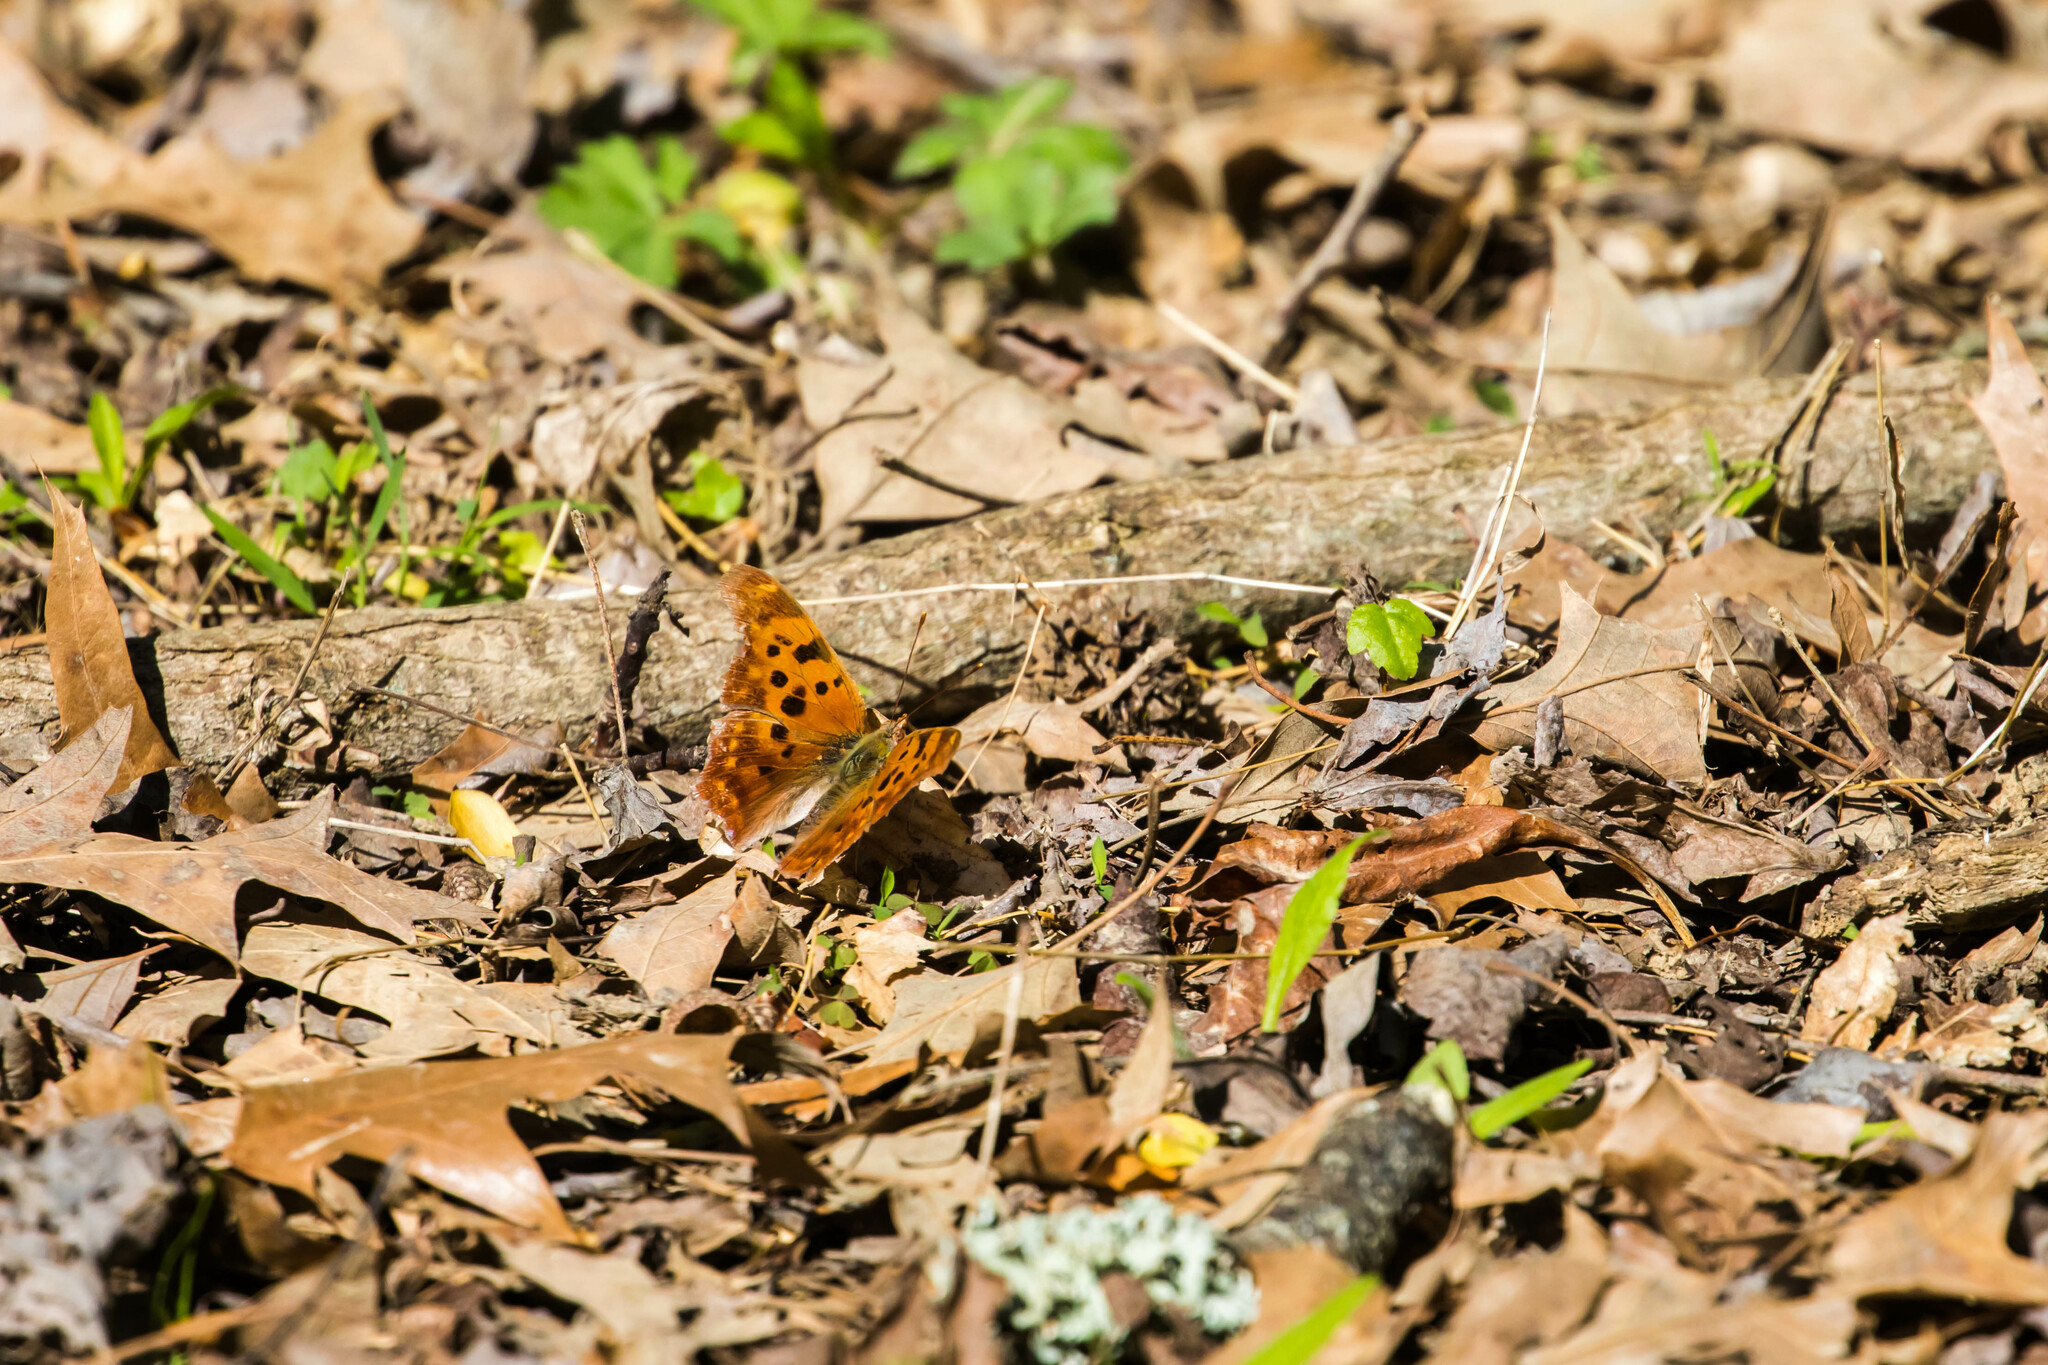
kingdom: Animalia
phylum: Arthropoda
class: Insecta
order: Lepidoptera
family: Nymphalidae
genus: Polygonia
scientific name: Polygonia interrogationis
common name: Question mark
